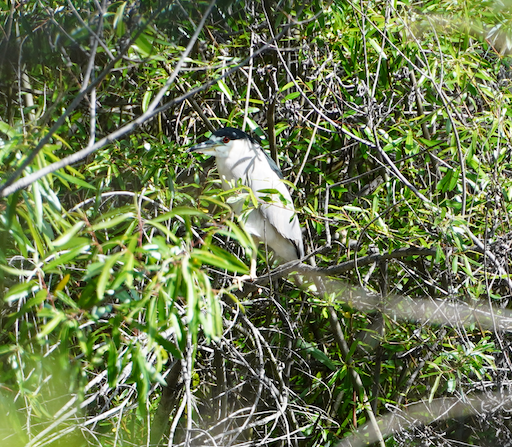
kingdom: Animalia
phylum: Chordata
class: Aves
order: Pelecaniformes
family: Ardeidae
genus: Nycticorax
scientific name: Nycticorax nycticorax
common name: Black-crowned night heron
